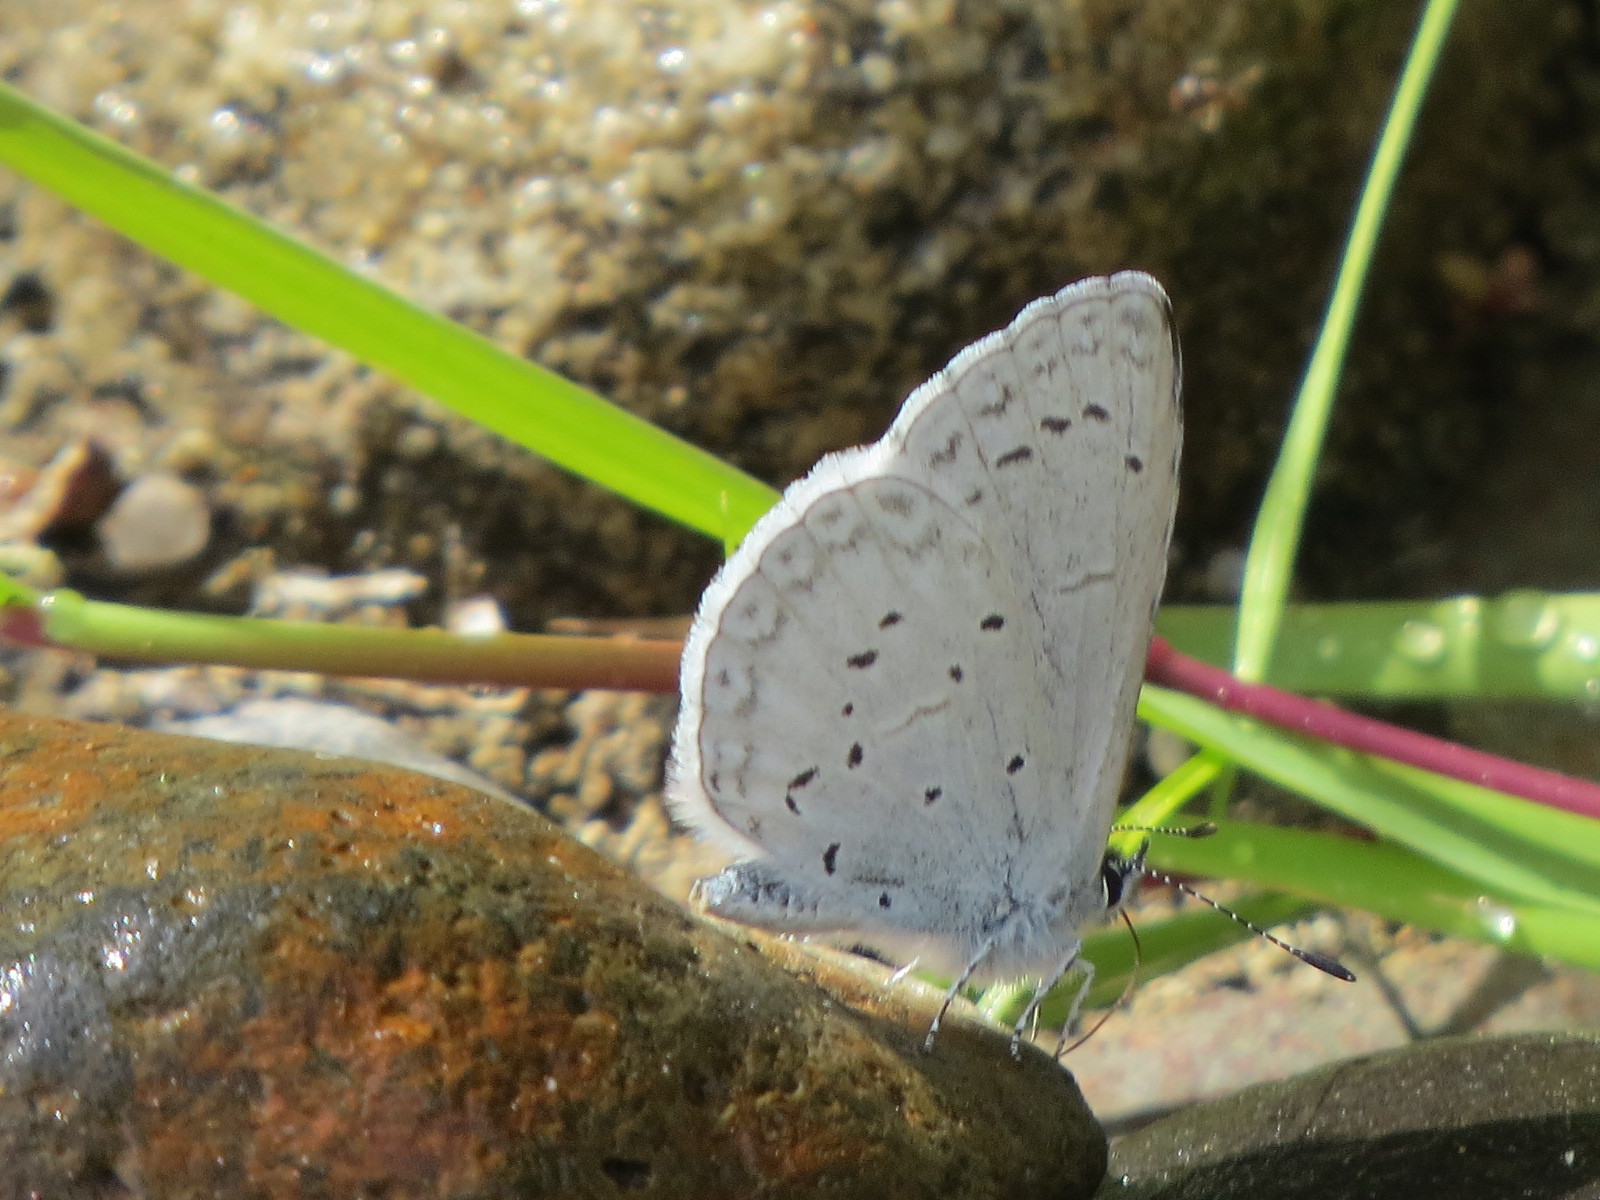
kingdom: Animalia
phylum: Arthropoda
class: Insecta
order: Lepidoptera
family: Lycaenidae
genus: Celastrina
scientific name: Celastrina ladon
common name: Spring azure
